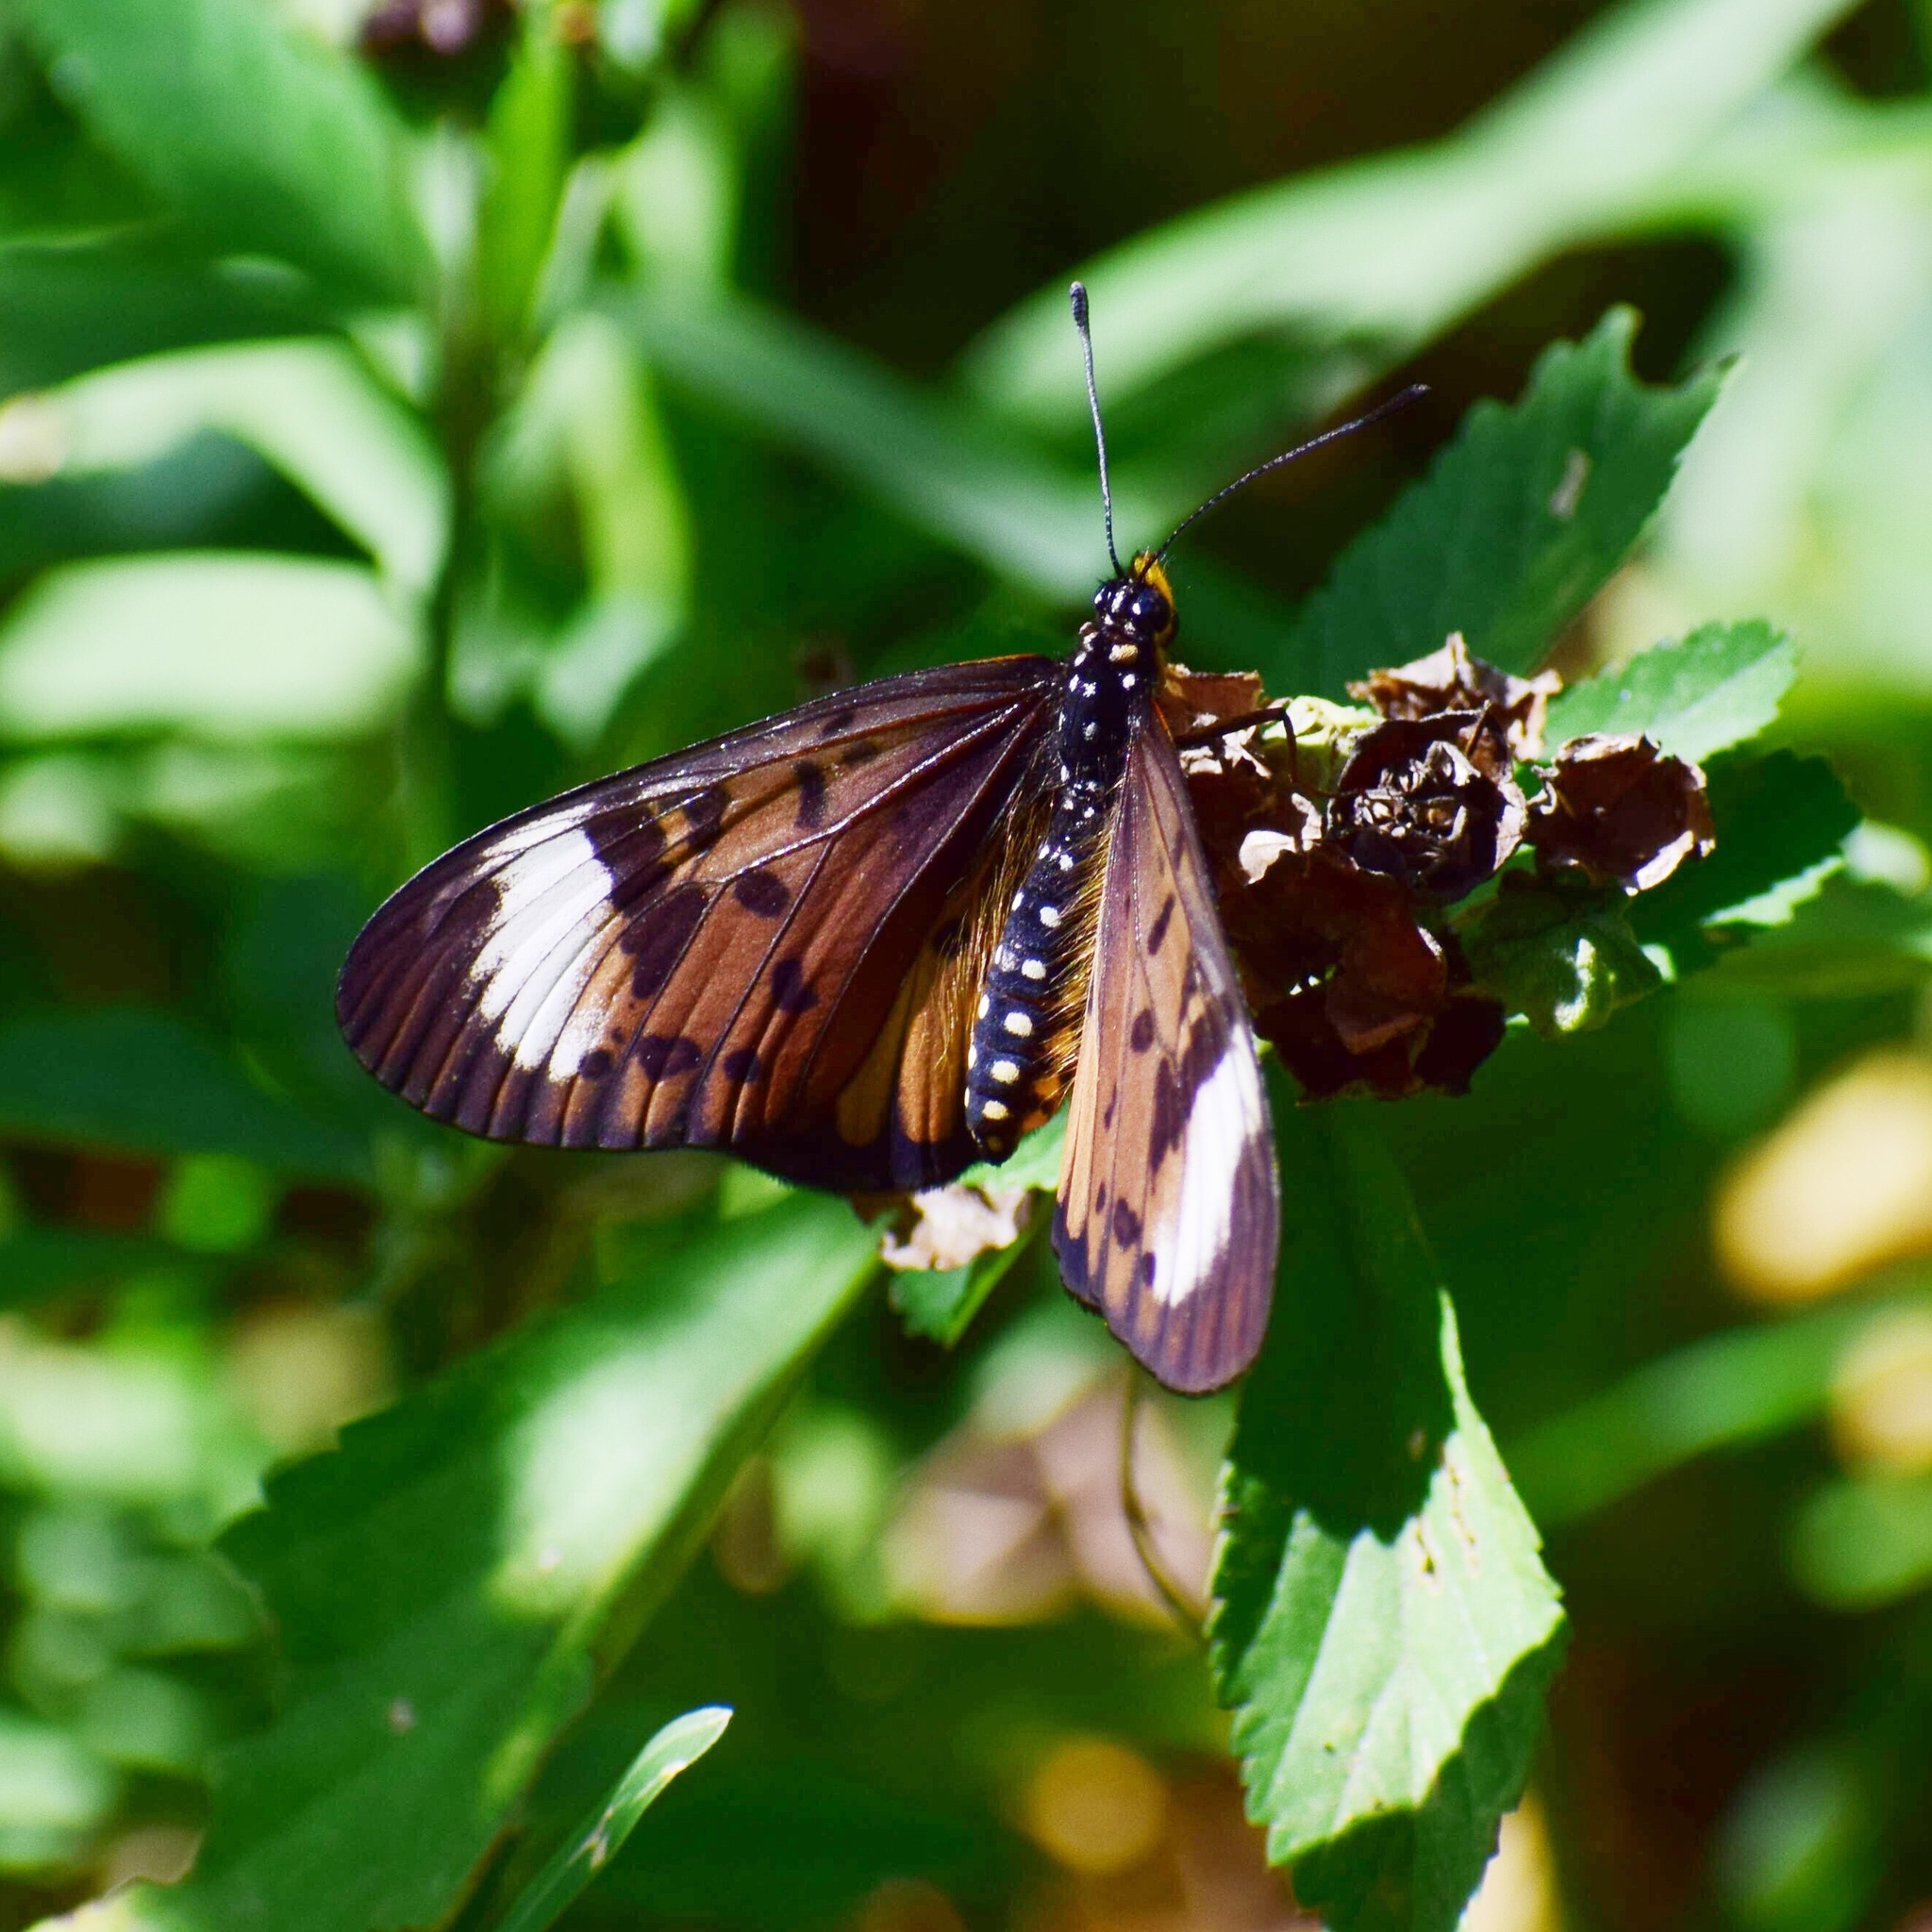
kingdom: Animalia
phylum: Arthropoda
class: Insecta
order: Lepidoptera
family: Nymphalidae
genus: Stephenia
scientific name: Stephenia
